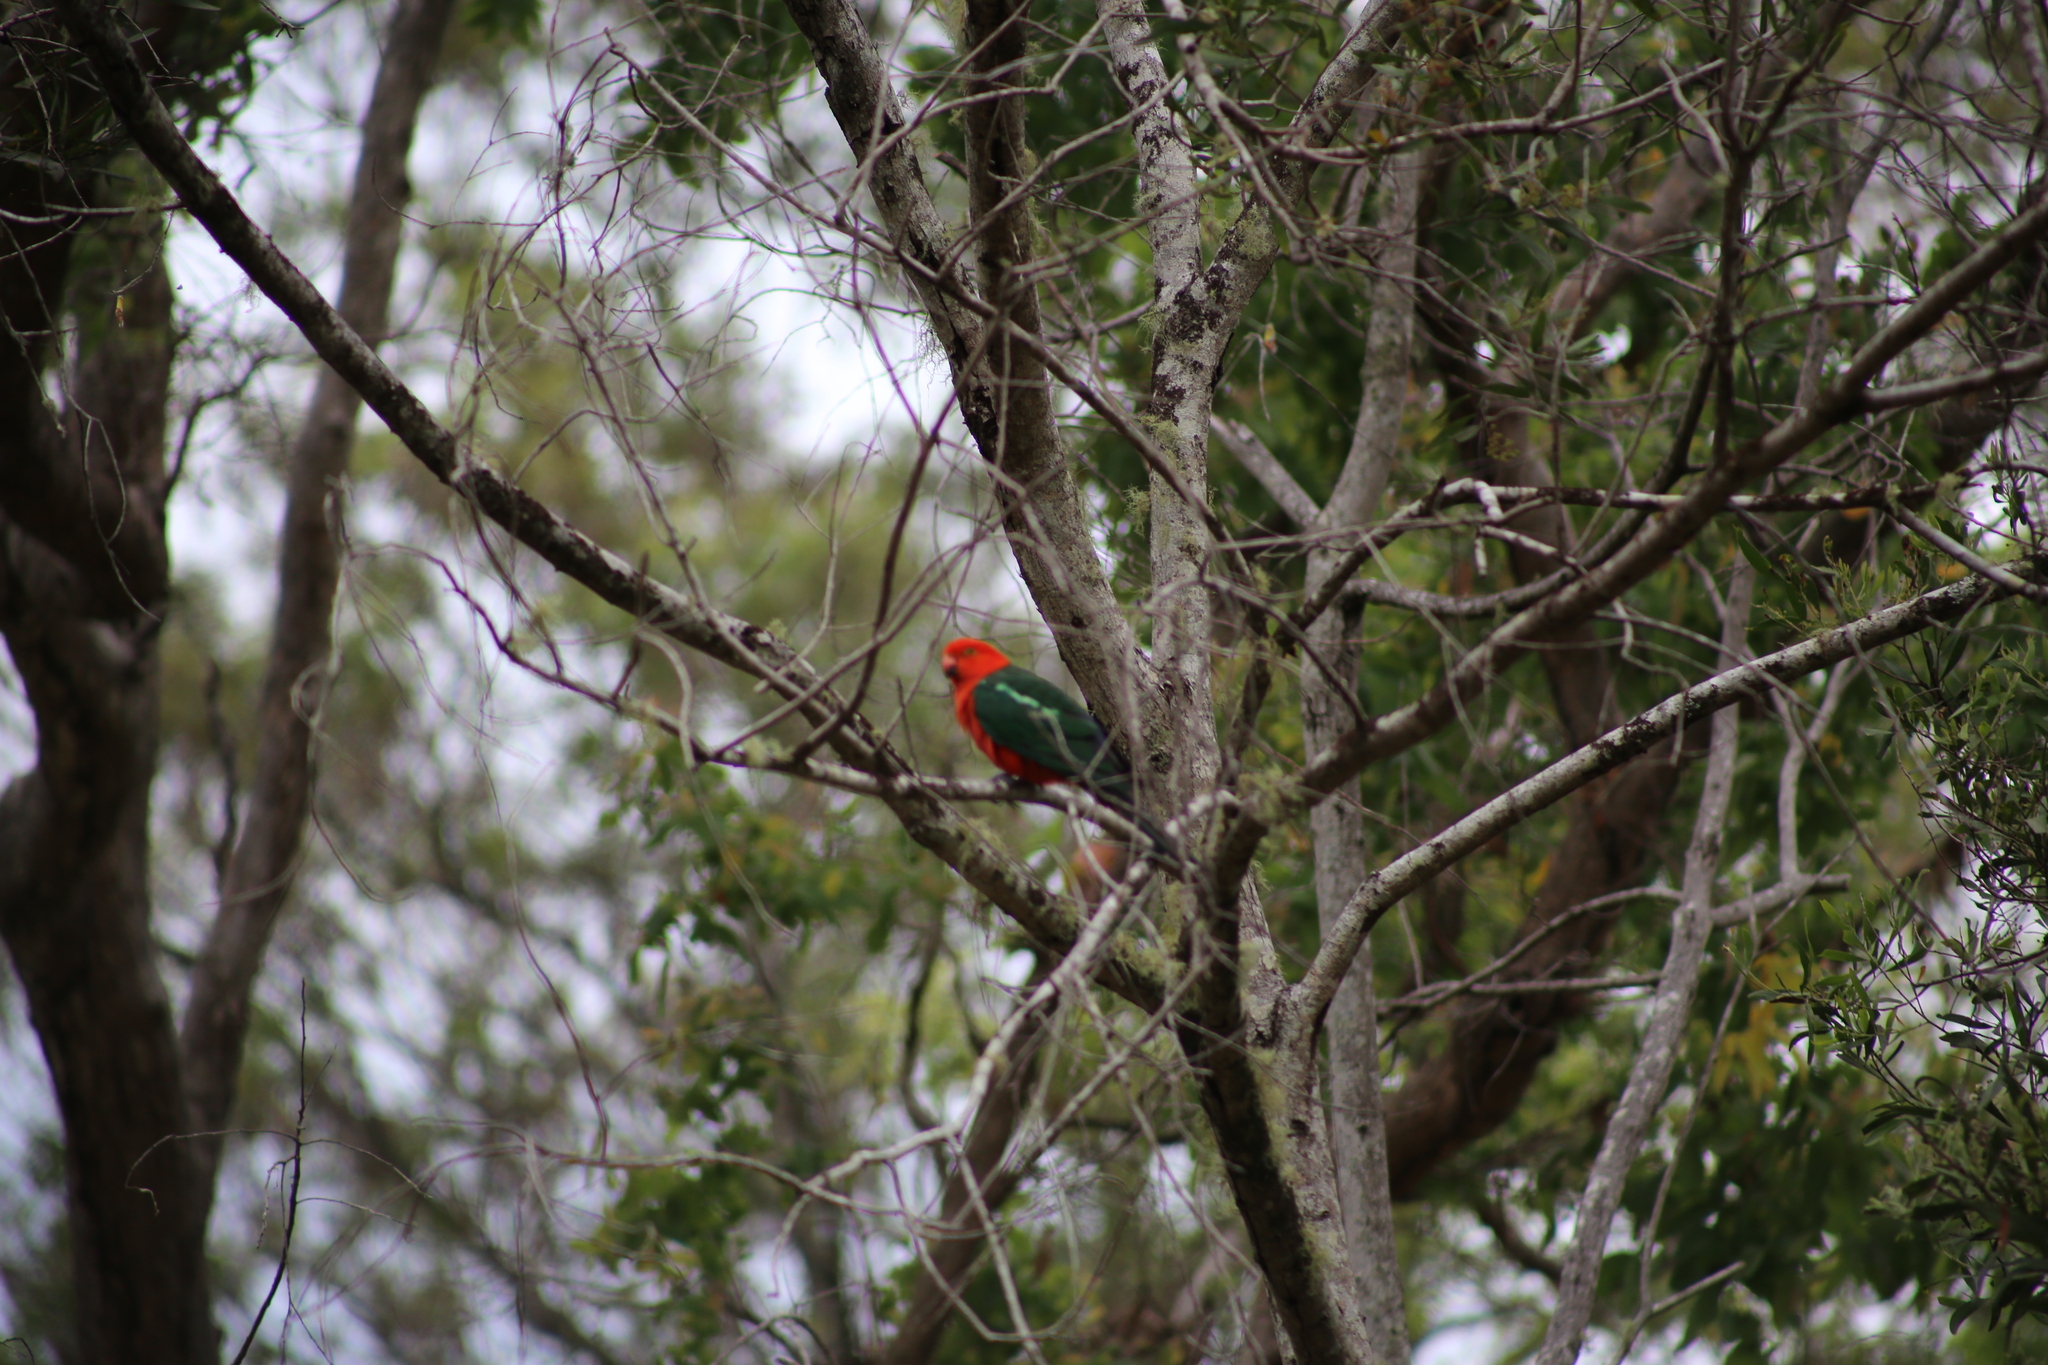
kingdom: Animalia
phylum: Chordata
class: Aves
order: Psittaciformes
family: Psittacidae
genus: Alisterus
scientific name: Alisterus scapularis
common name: Australian king parrot
